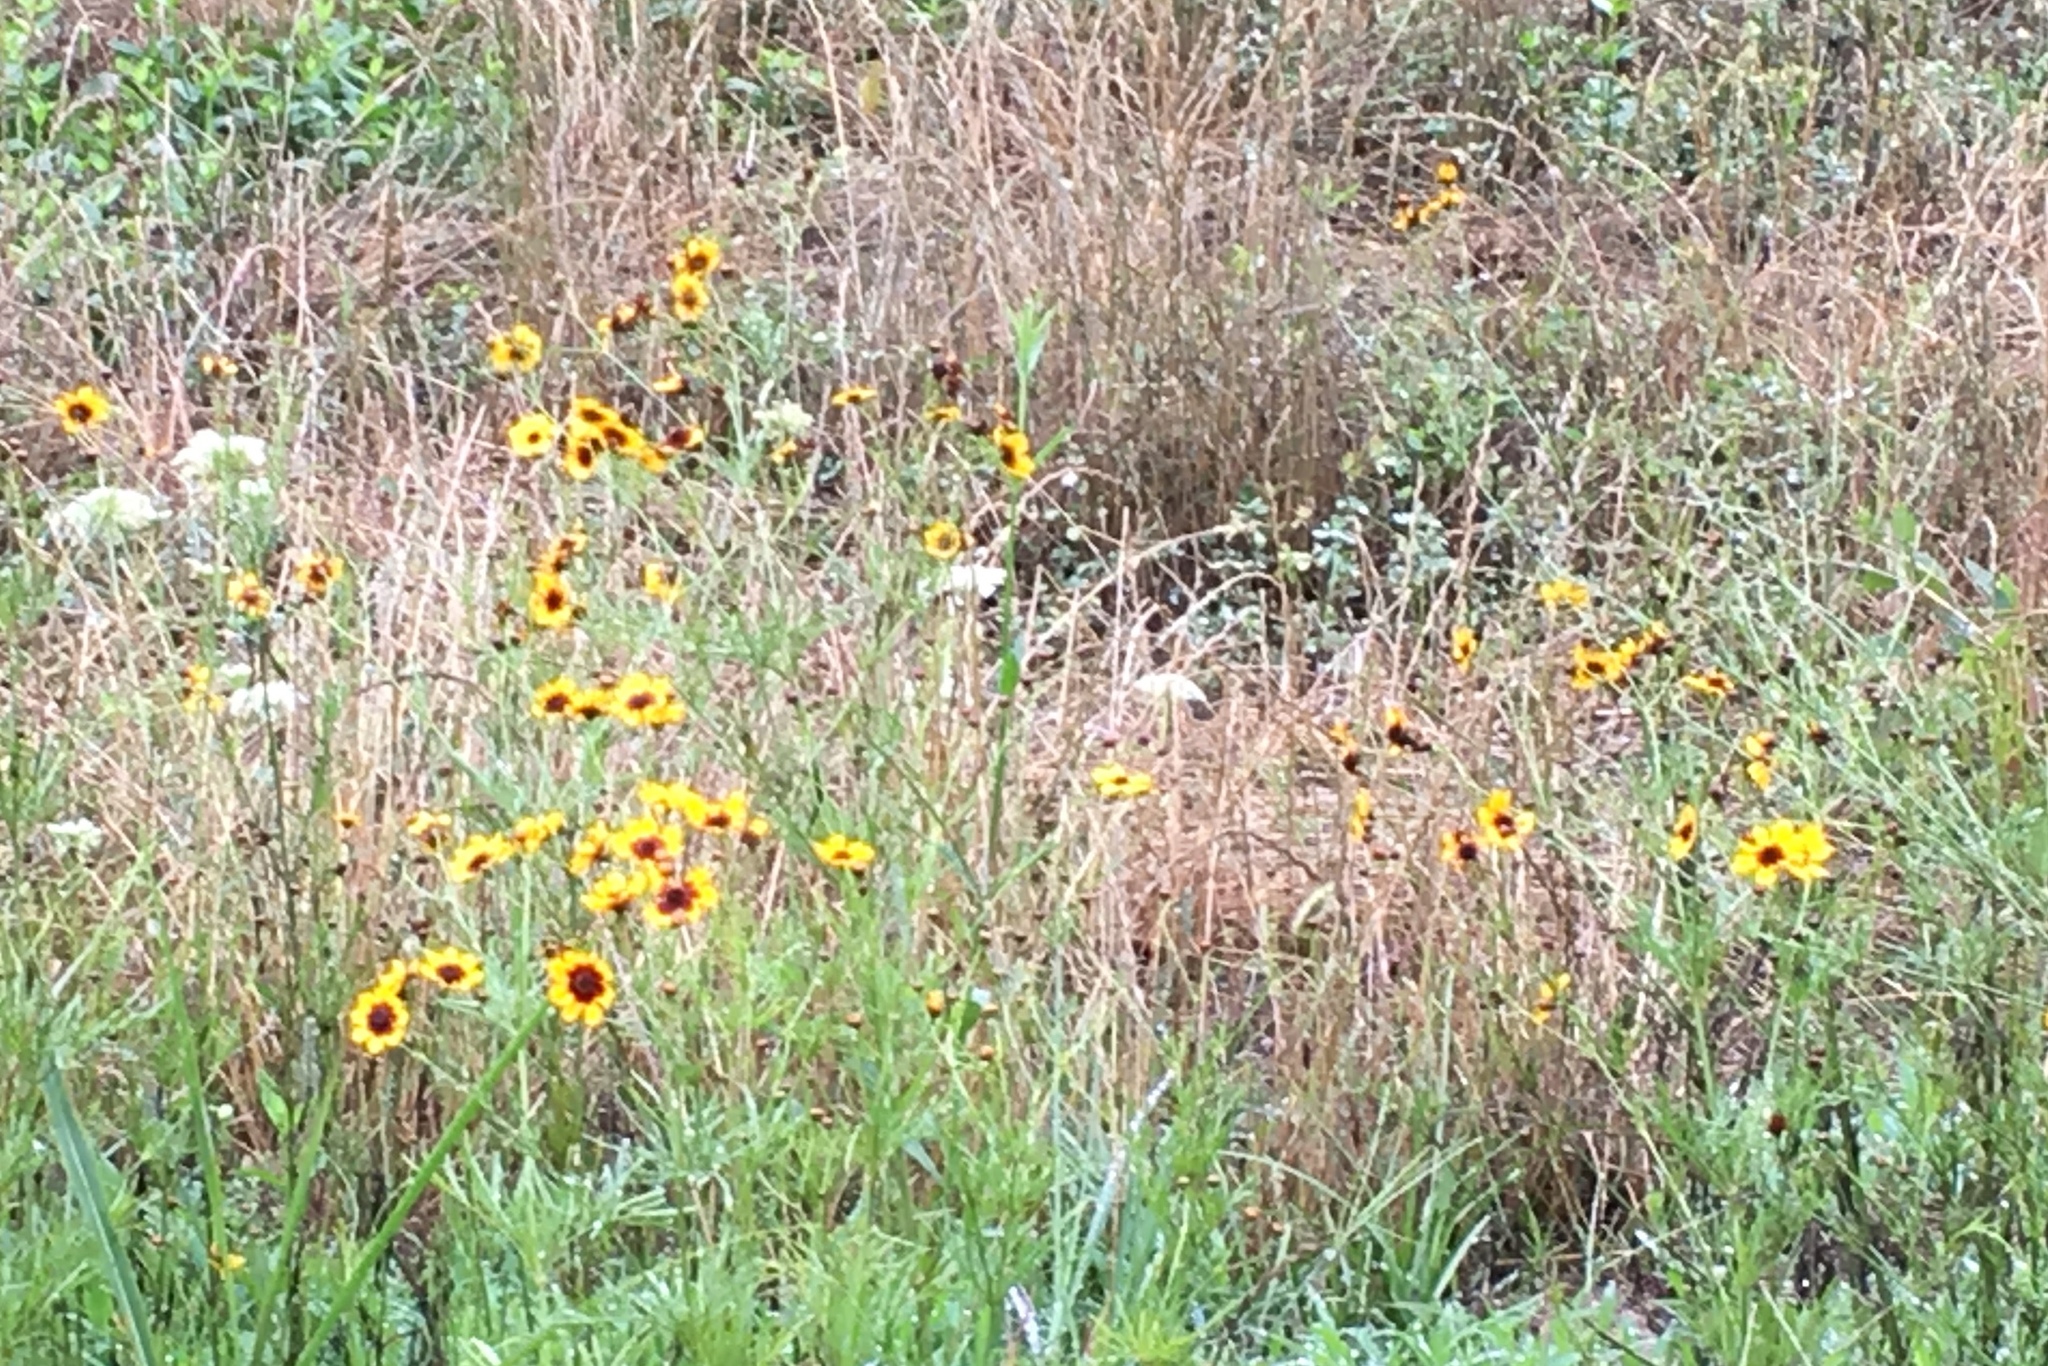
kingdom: Plantae
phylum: Tracheophyta
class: Magnoliopsida
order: Asterales
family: Asteraceae
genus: Coreopsis
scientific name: Coreopsis tinctoria
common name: Garden tickseed
